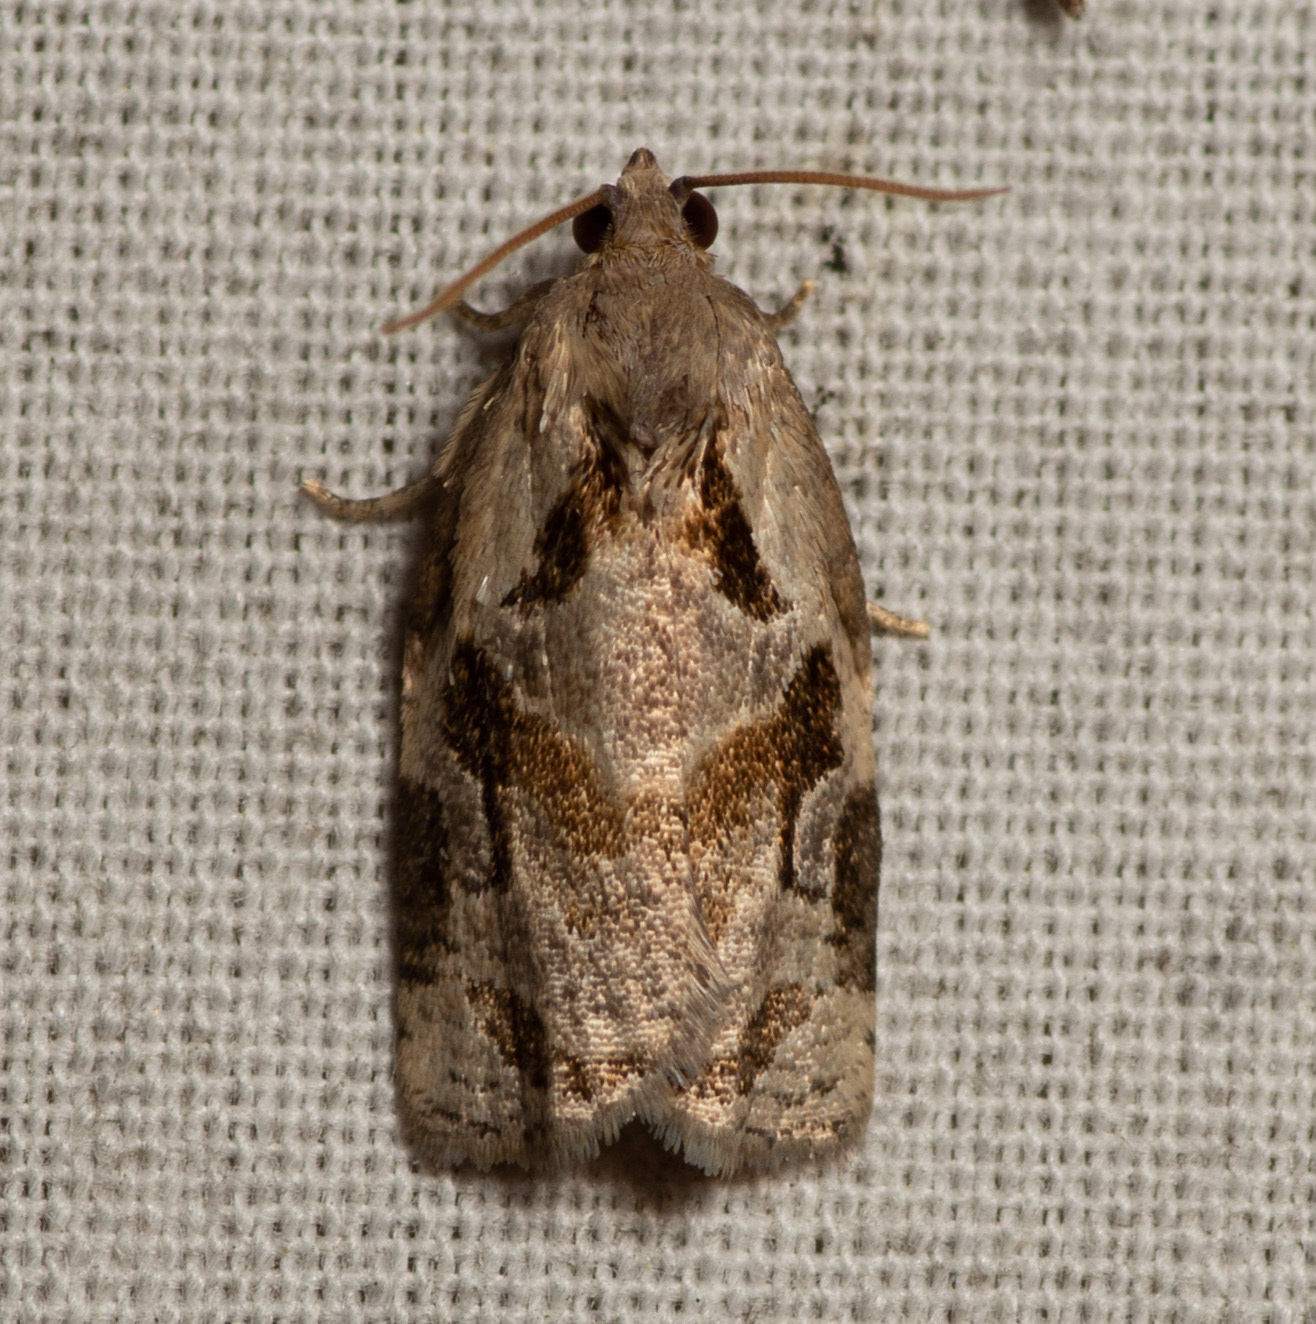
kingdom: Animalia
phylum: Arthropoda
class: Insecta
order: Lepidoptera
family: Tortricidae
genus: Archips
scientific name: Archips grisea
